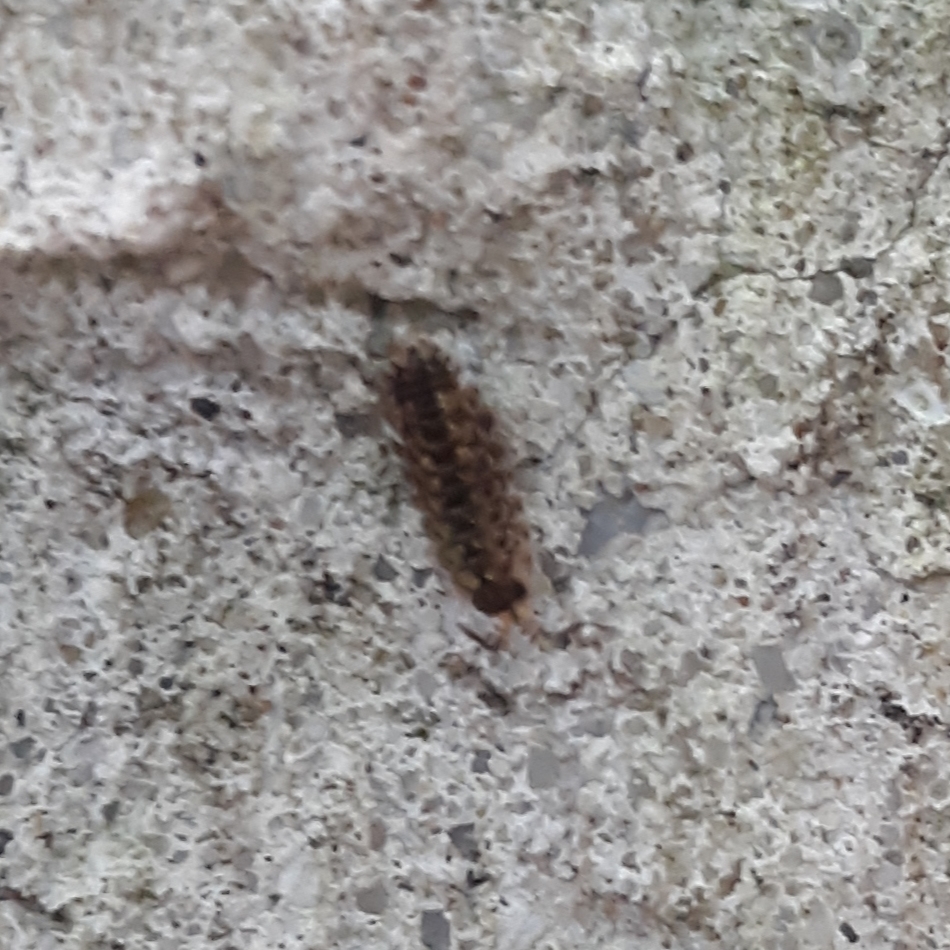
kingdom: Animalia
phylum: Arthropoda
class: Malacostraca
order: Isopoda
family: Porcellionidae
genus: Porcellio
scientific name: Porcellio spinicornis
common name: Painted woodlouse
